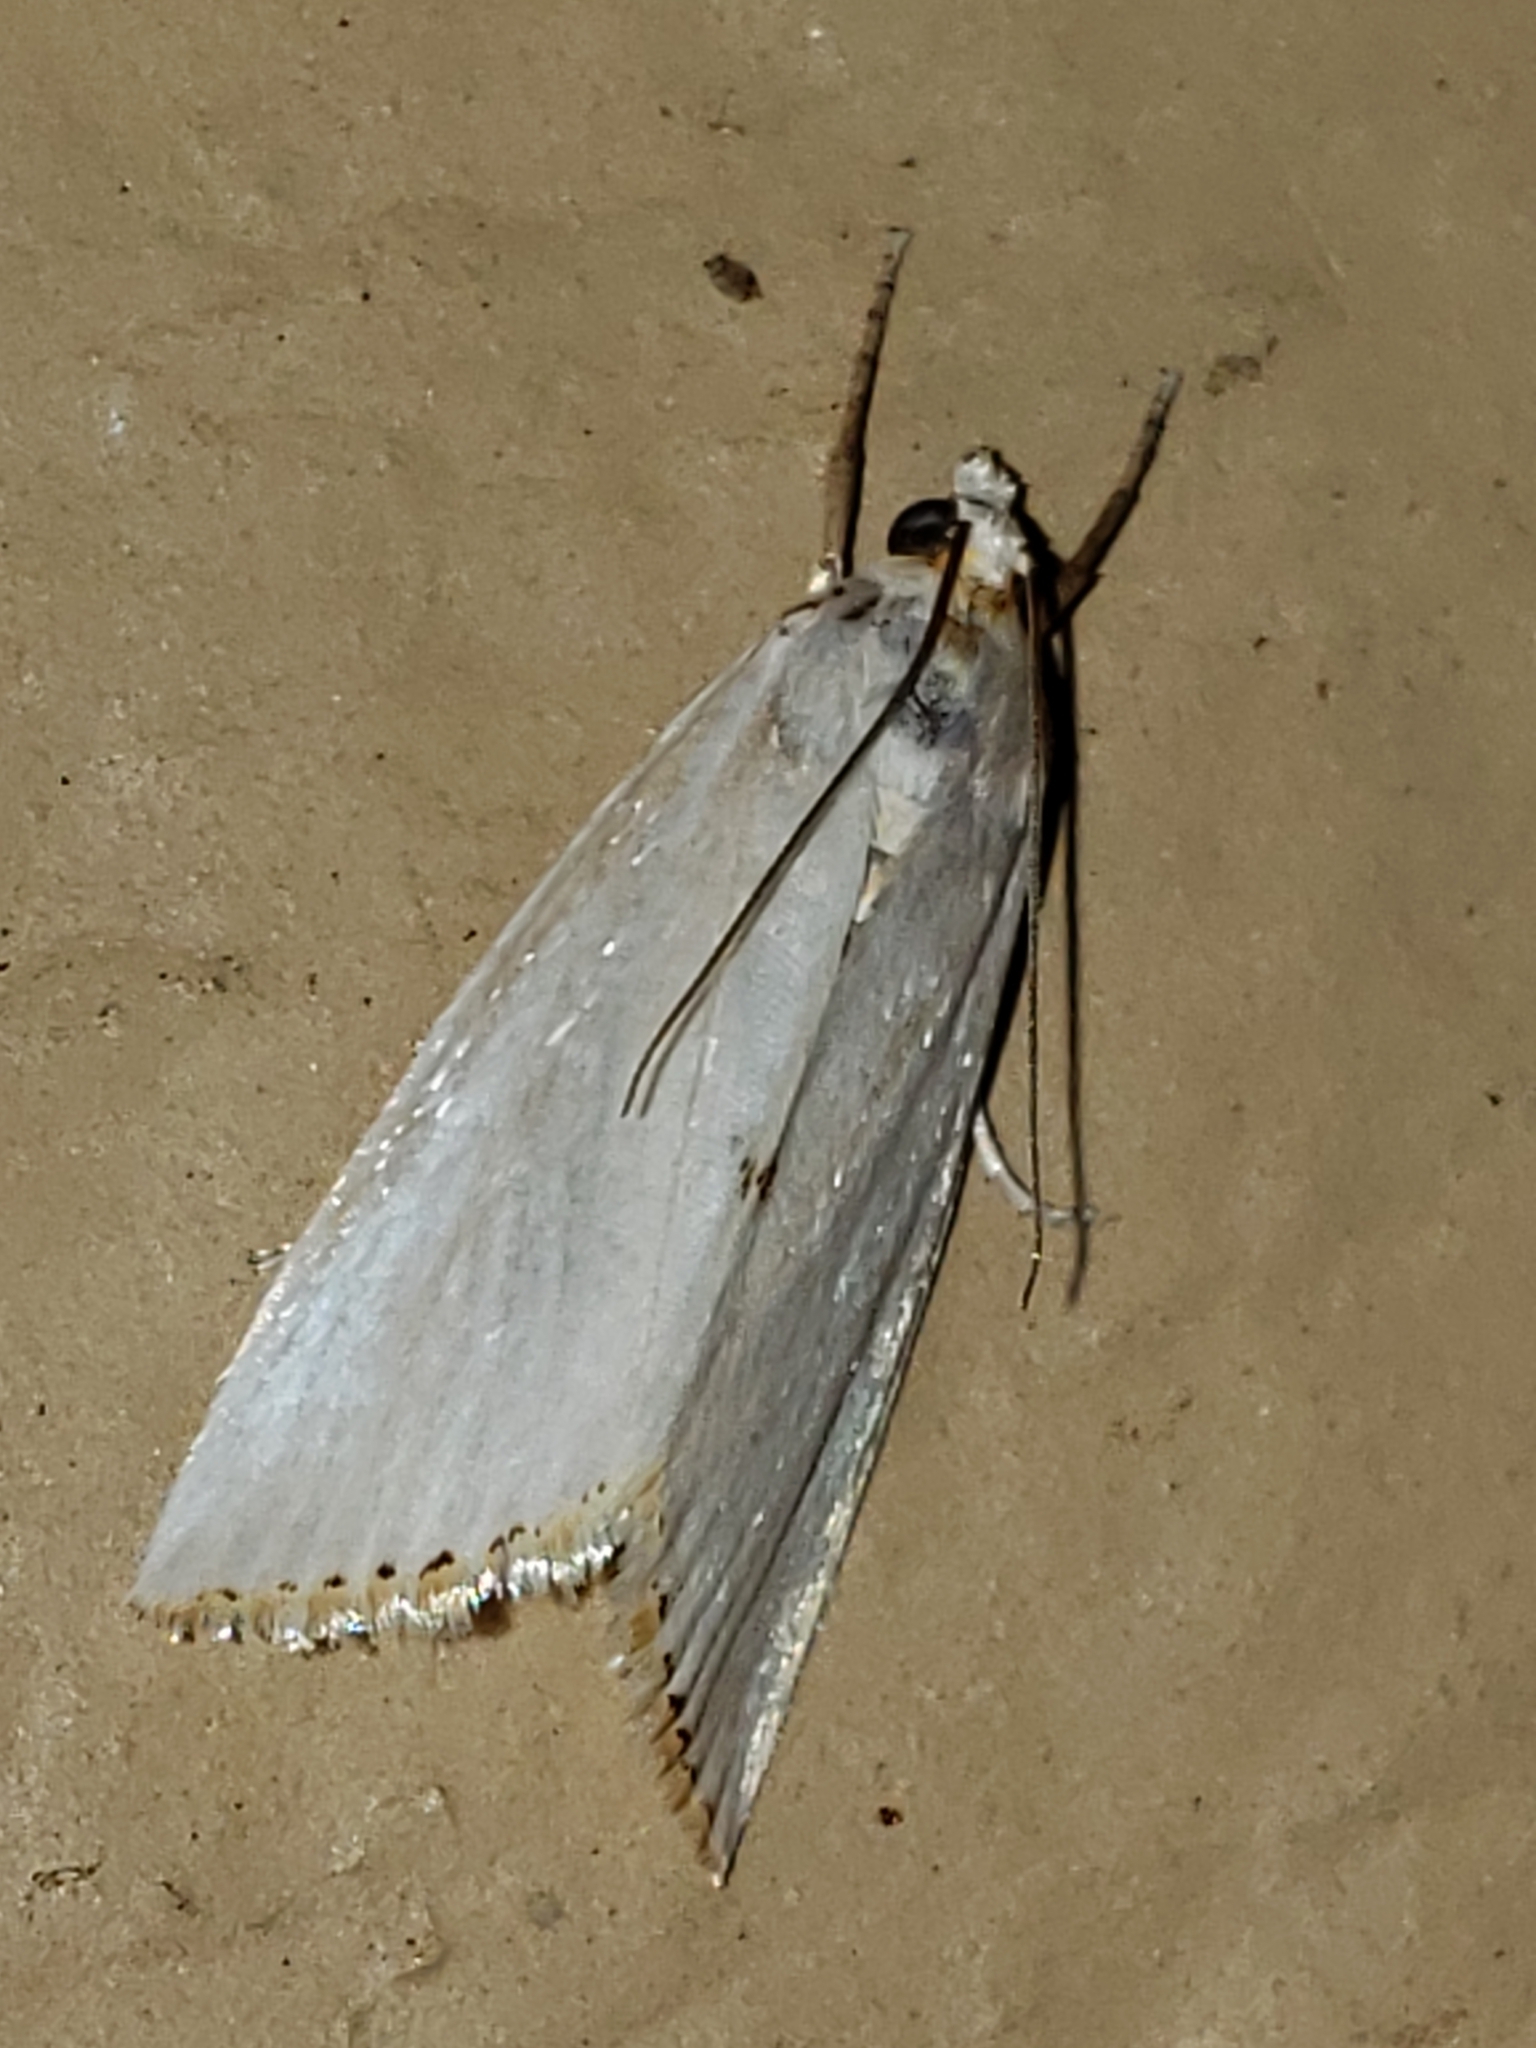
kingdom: Animalia
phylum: Arthropoda
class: Insecta
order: Lepidoptera
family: Crambidae
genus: Argyria
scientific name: Argyria nivalis
